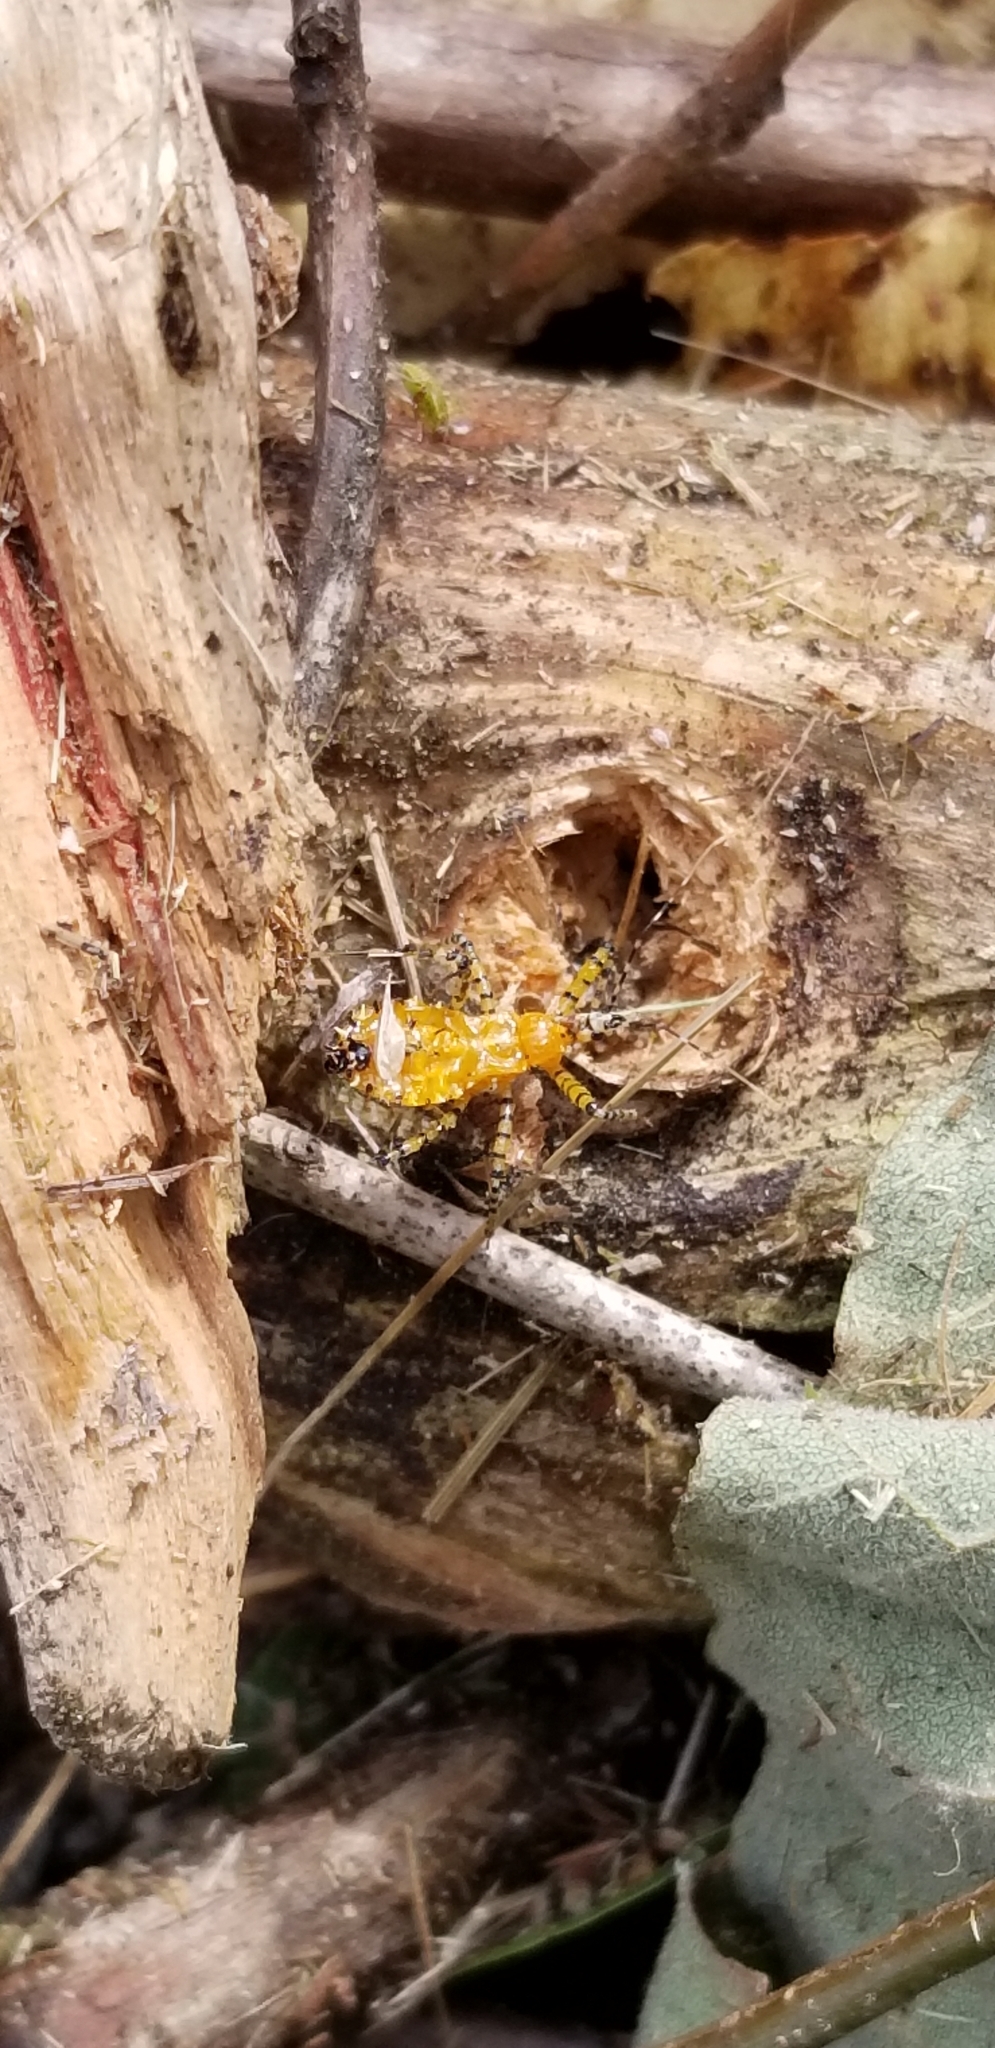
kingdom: Animalia
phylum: Arthropoda
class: Insecta
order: Hemiptera
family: Reduviidae
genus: Pselliopus
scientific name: Pselliopus barberi
